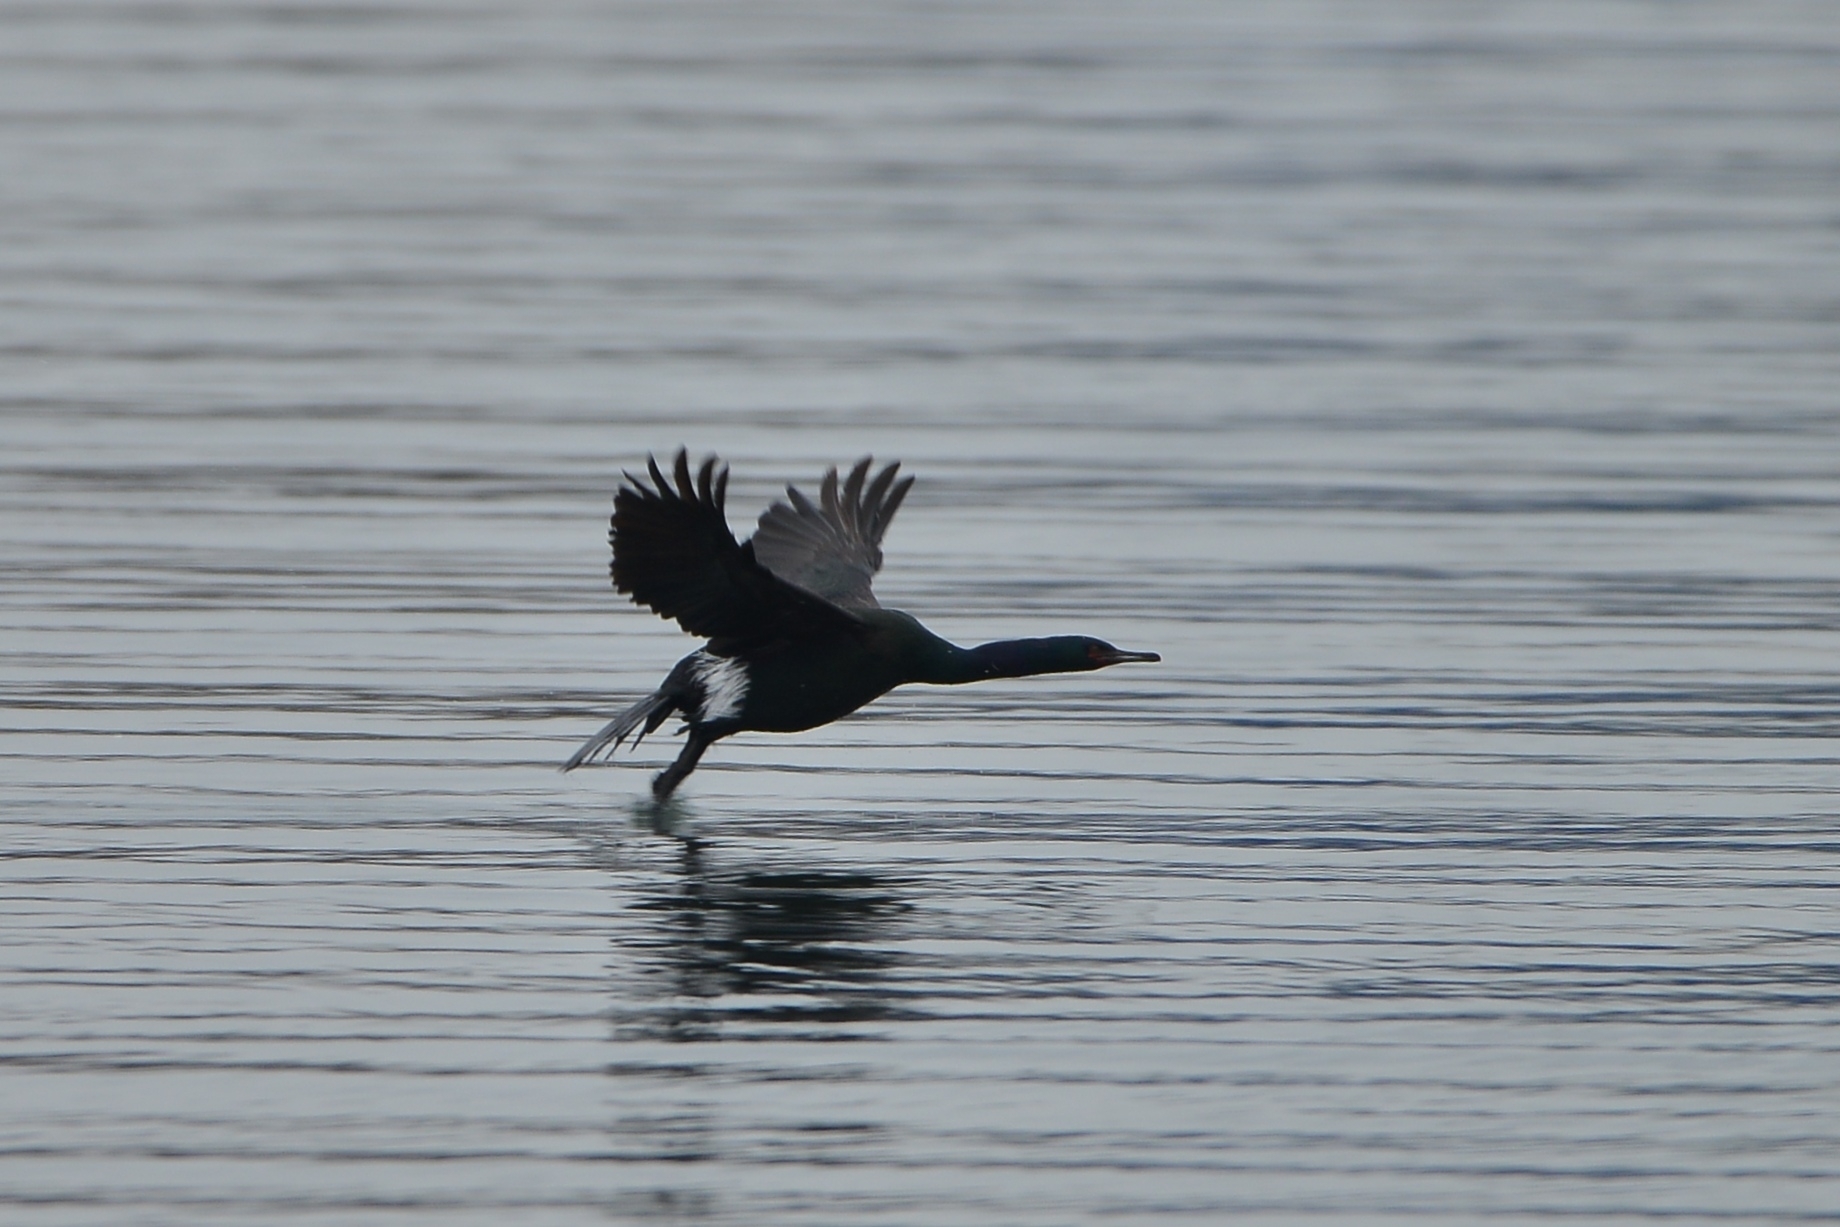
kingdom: Animalia
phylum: Chordata
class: Aves
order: Suliformes
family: Phalacrocoracidae
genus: Phalacrocorax
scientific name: Phalacrocorax pelagicus
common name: Pelagic cormorant
